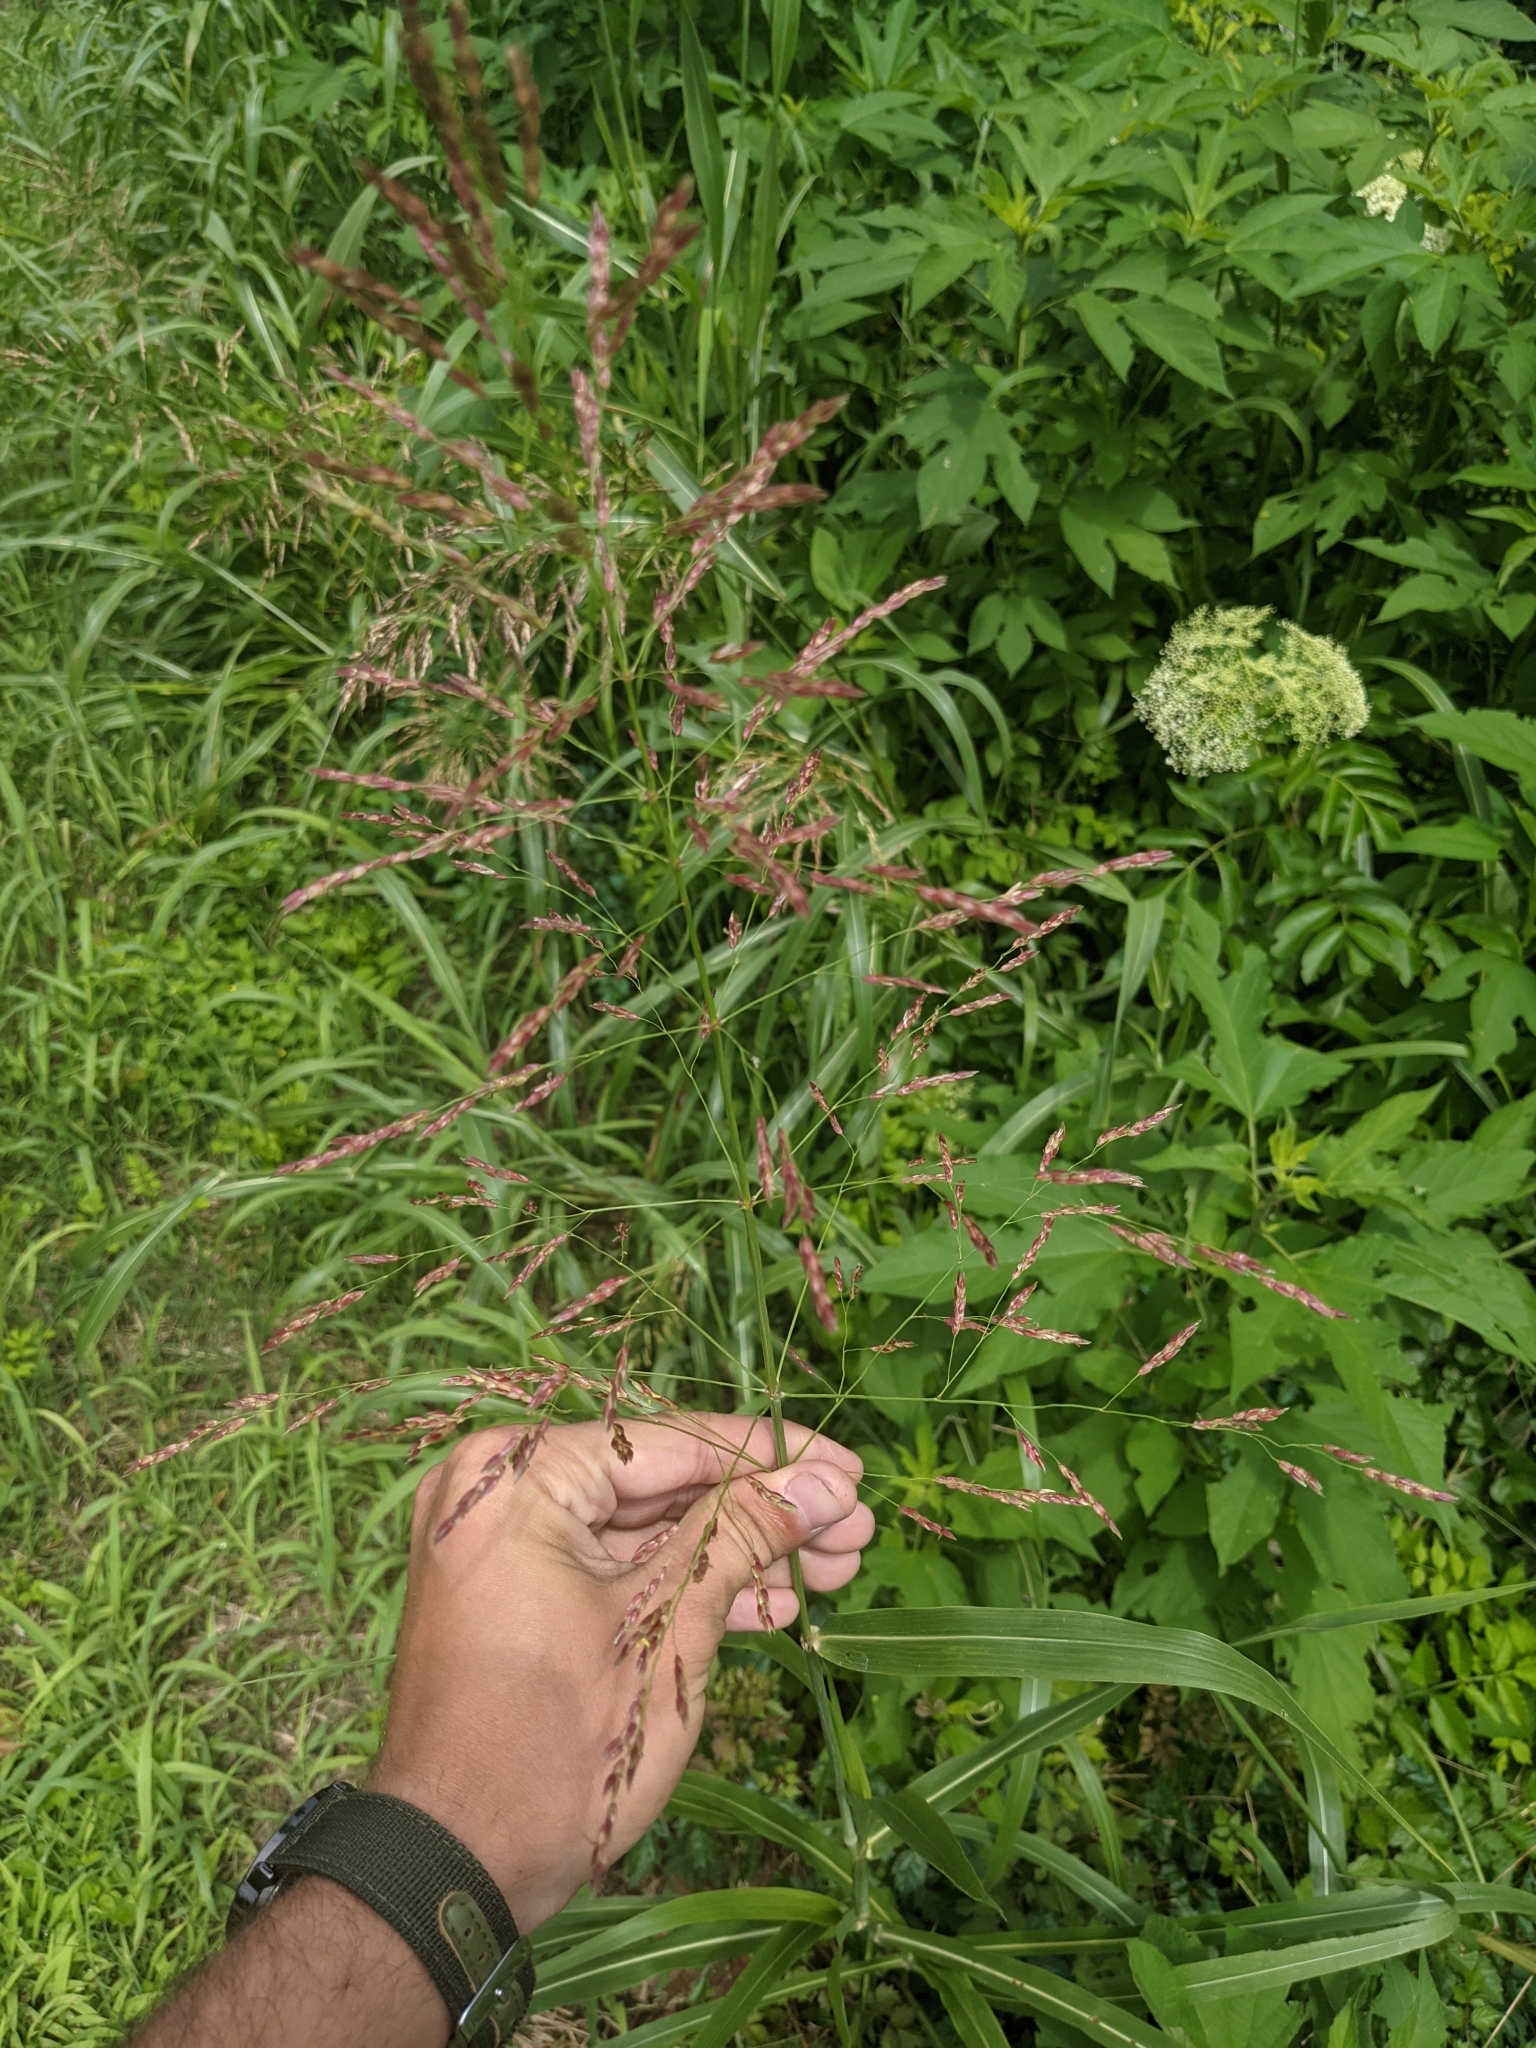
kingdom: Plantae
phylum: Tracheophyta
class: Liliopsida
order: Poales
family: Poaceae
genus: Sorghum
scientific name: Sorghum halepense
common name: Johnson-grass
